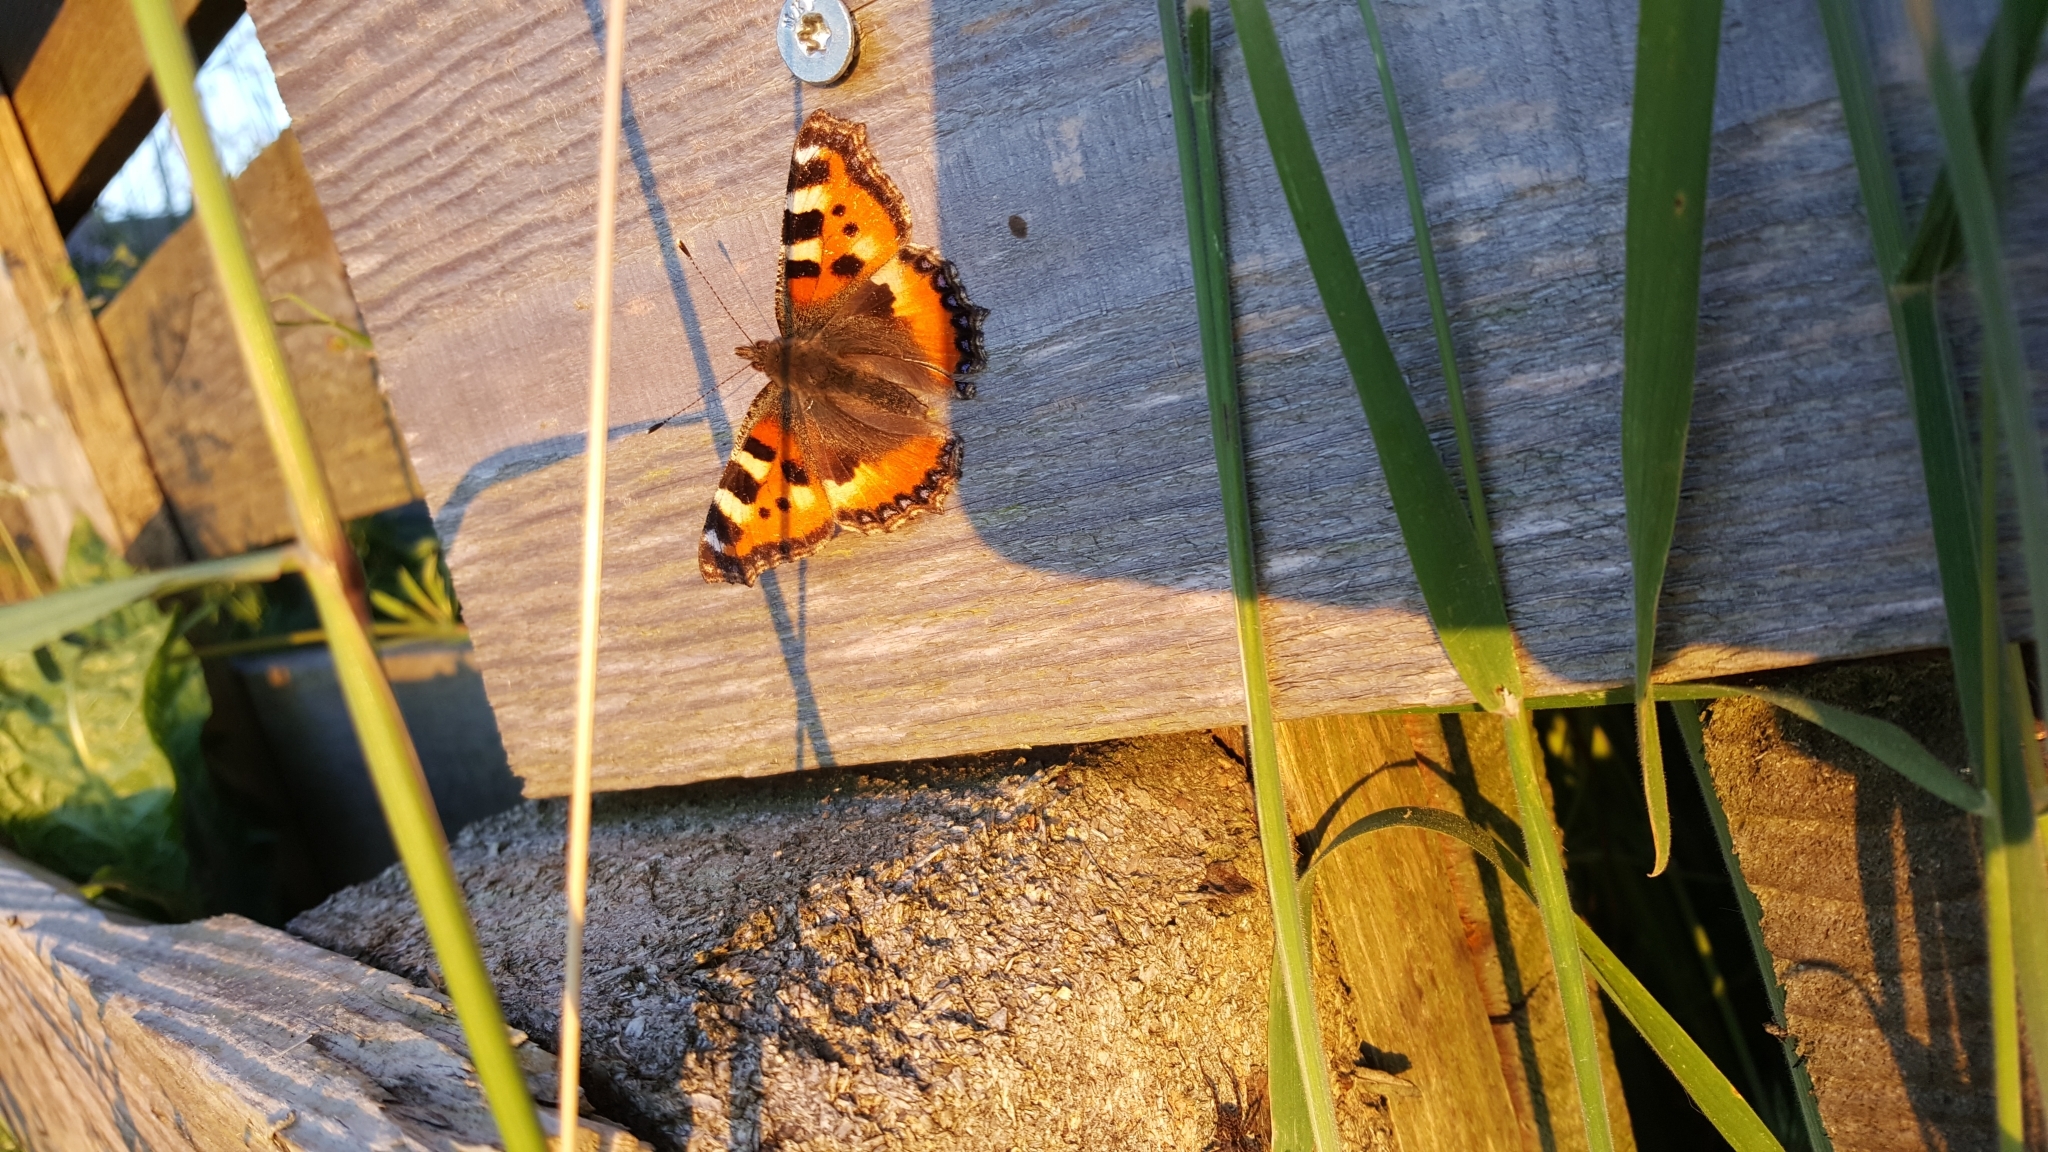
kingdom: Animalia
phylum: Arthropoda
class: Insecta
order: Lepidoptera
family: Nymphalidae
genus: Aglais
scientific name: Aglais urticae
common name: Small tortoiseshell
